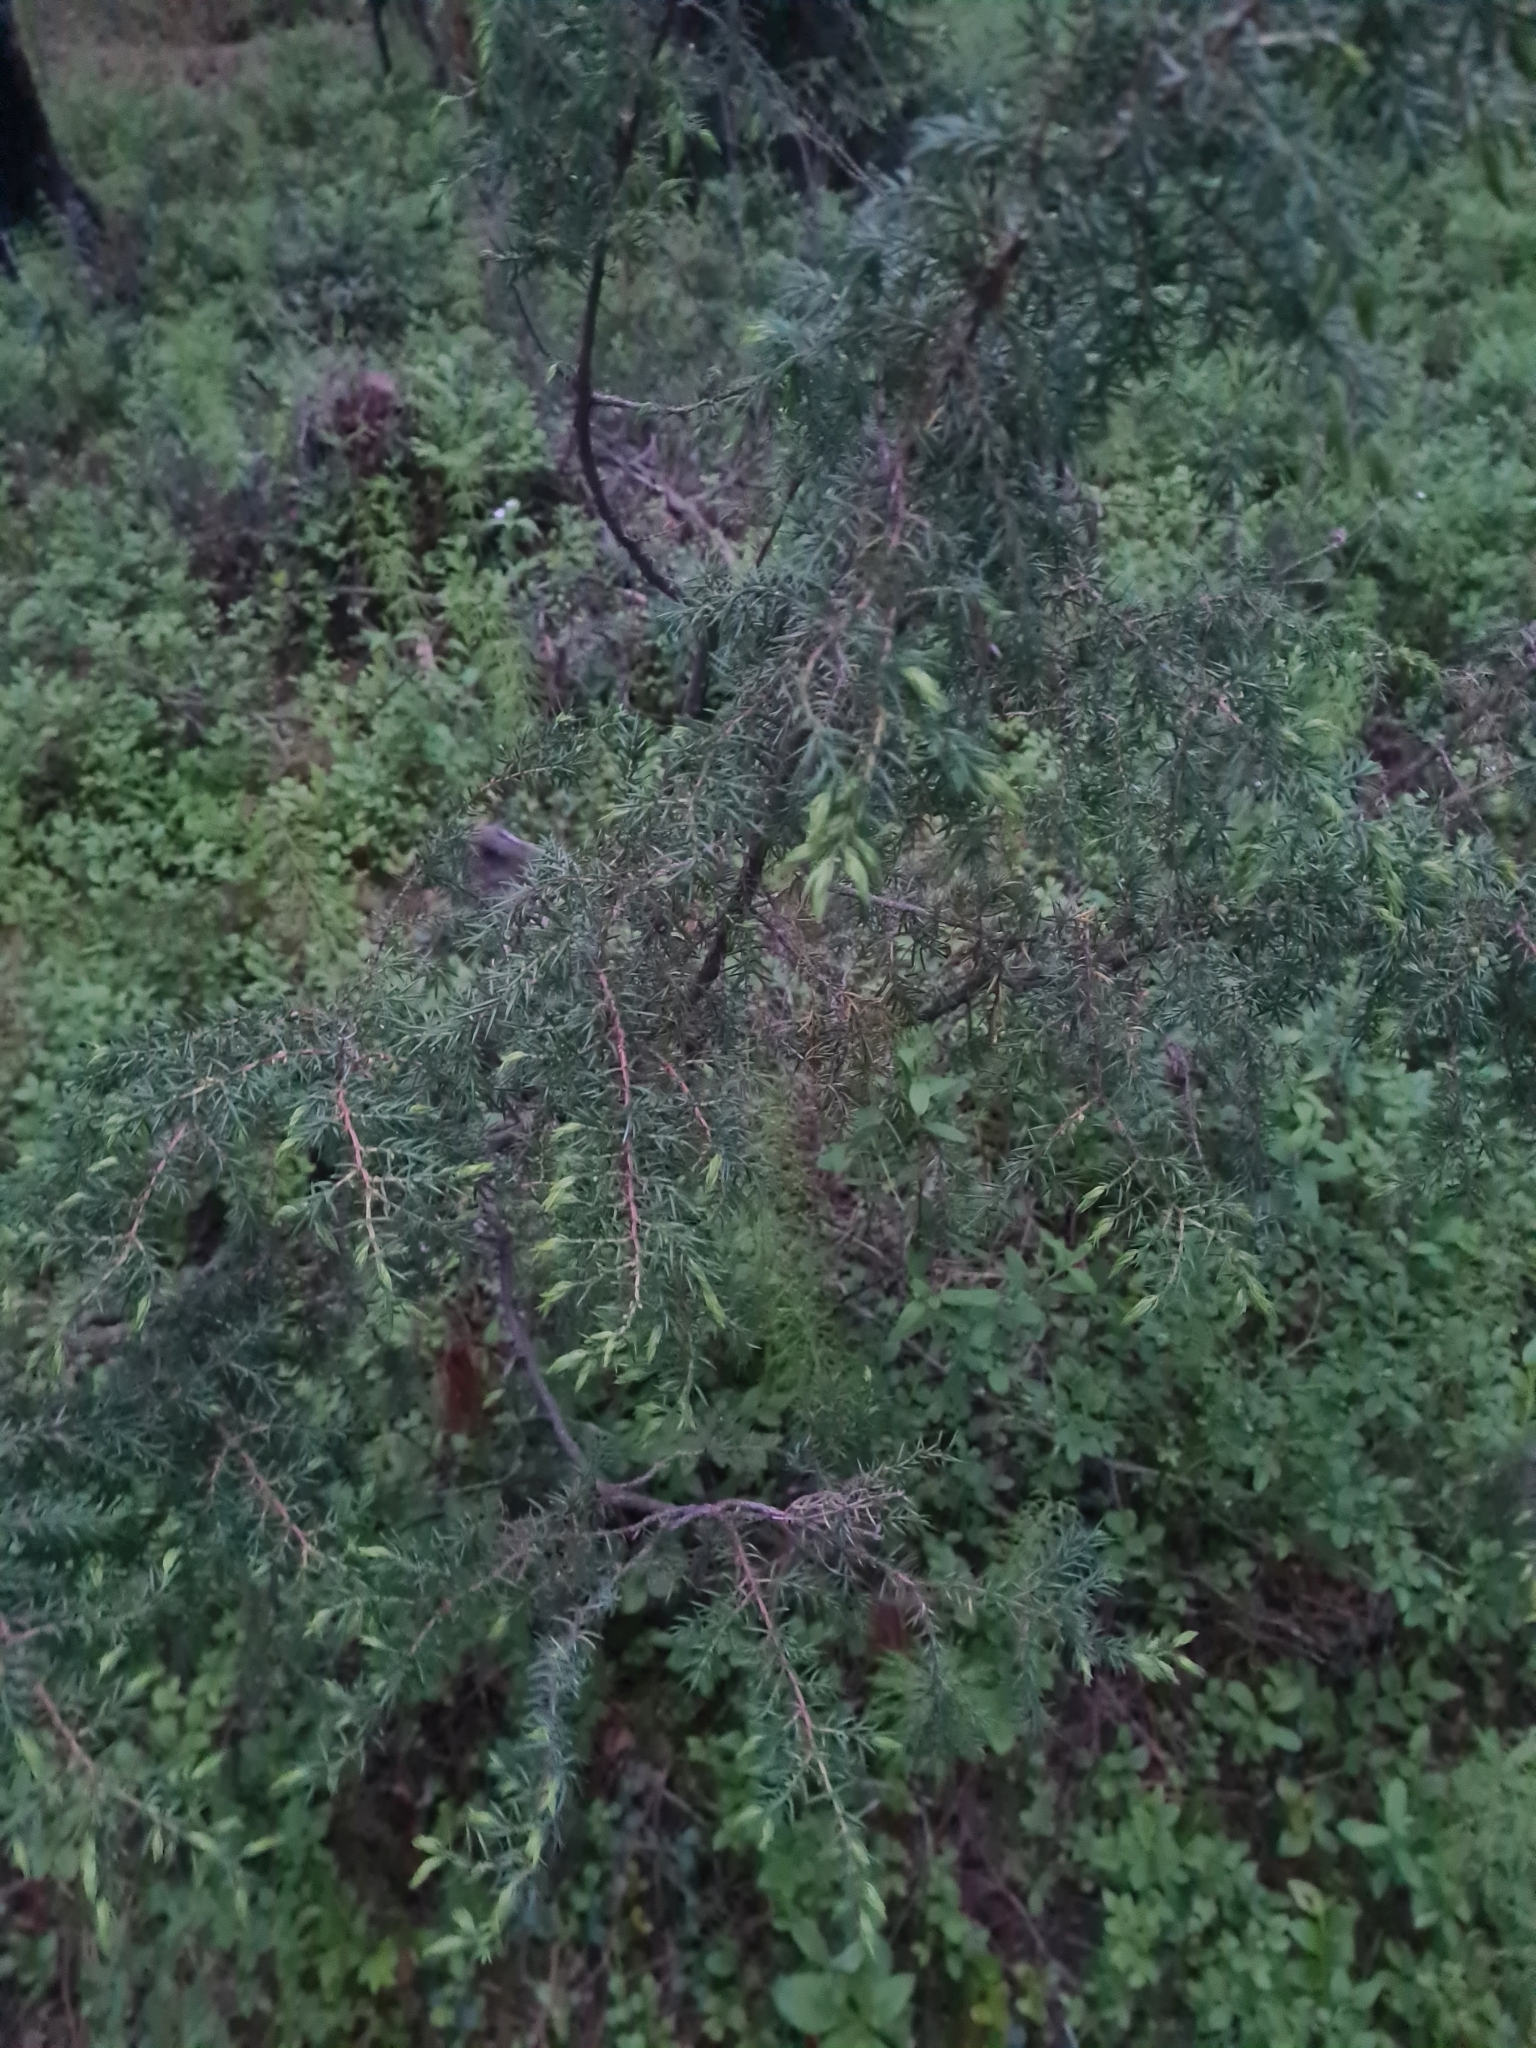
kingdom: Plantae
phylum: Tracheophyta
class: Pinopsida
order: Pinales
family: Cupressaceae
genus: Juniperus
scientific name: Juniperus communis
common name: Common juniper
